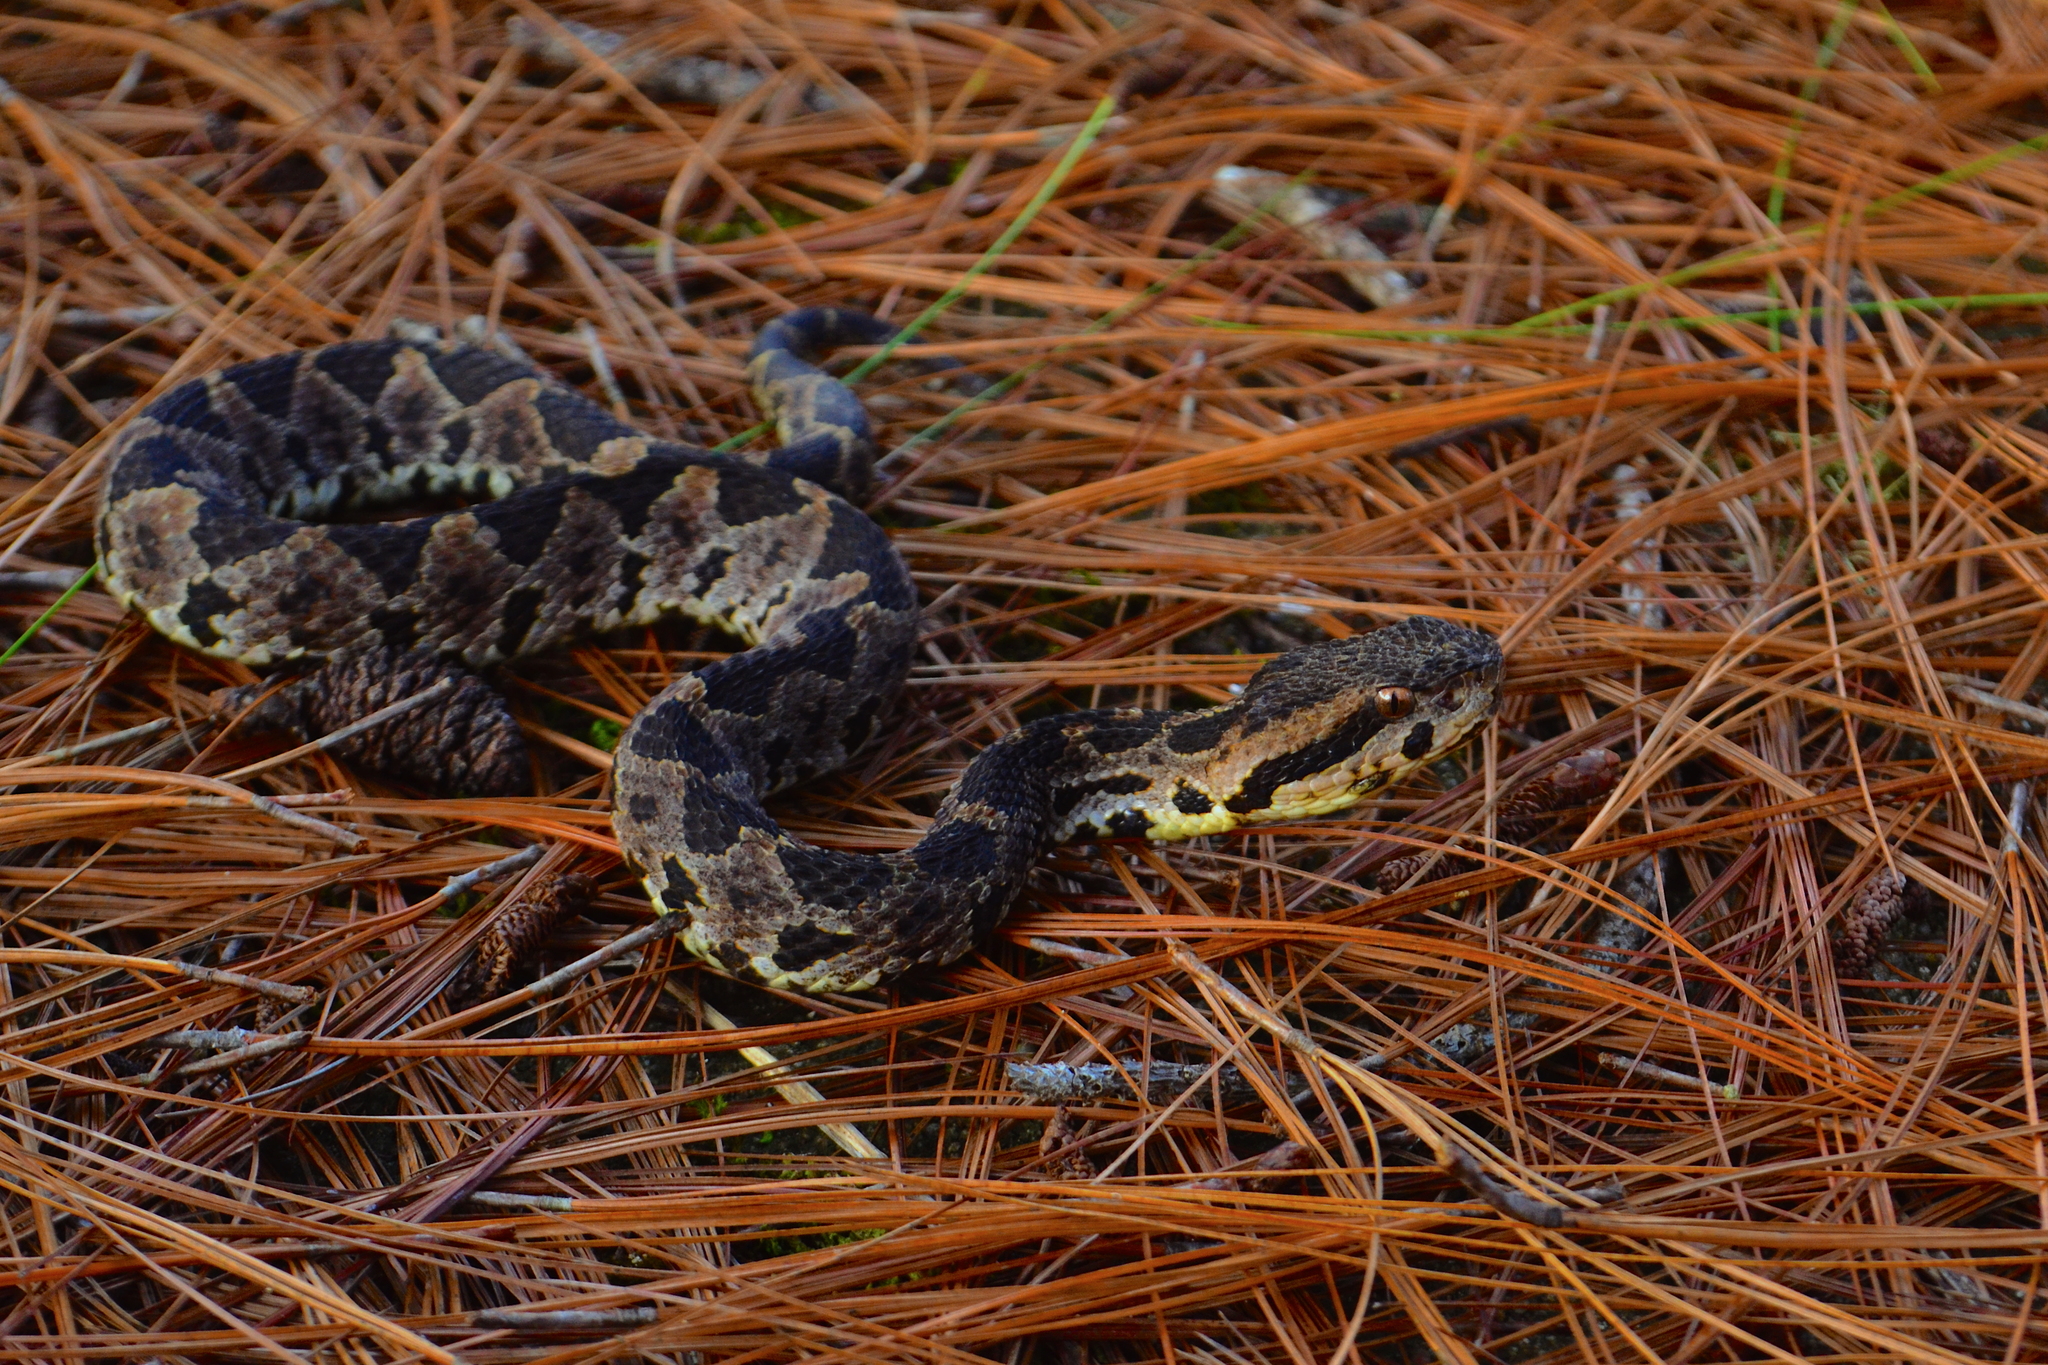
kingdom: Animalia
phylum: Chordata
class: Squamata
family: Viperidae
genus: Metlapilcoatlus
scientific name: Metlapilcoatlus olmec
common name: Olmecan pit viper
